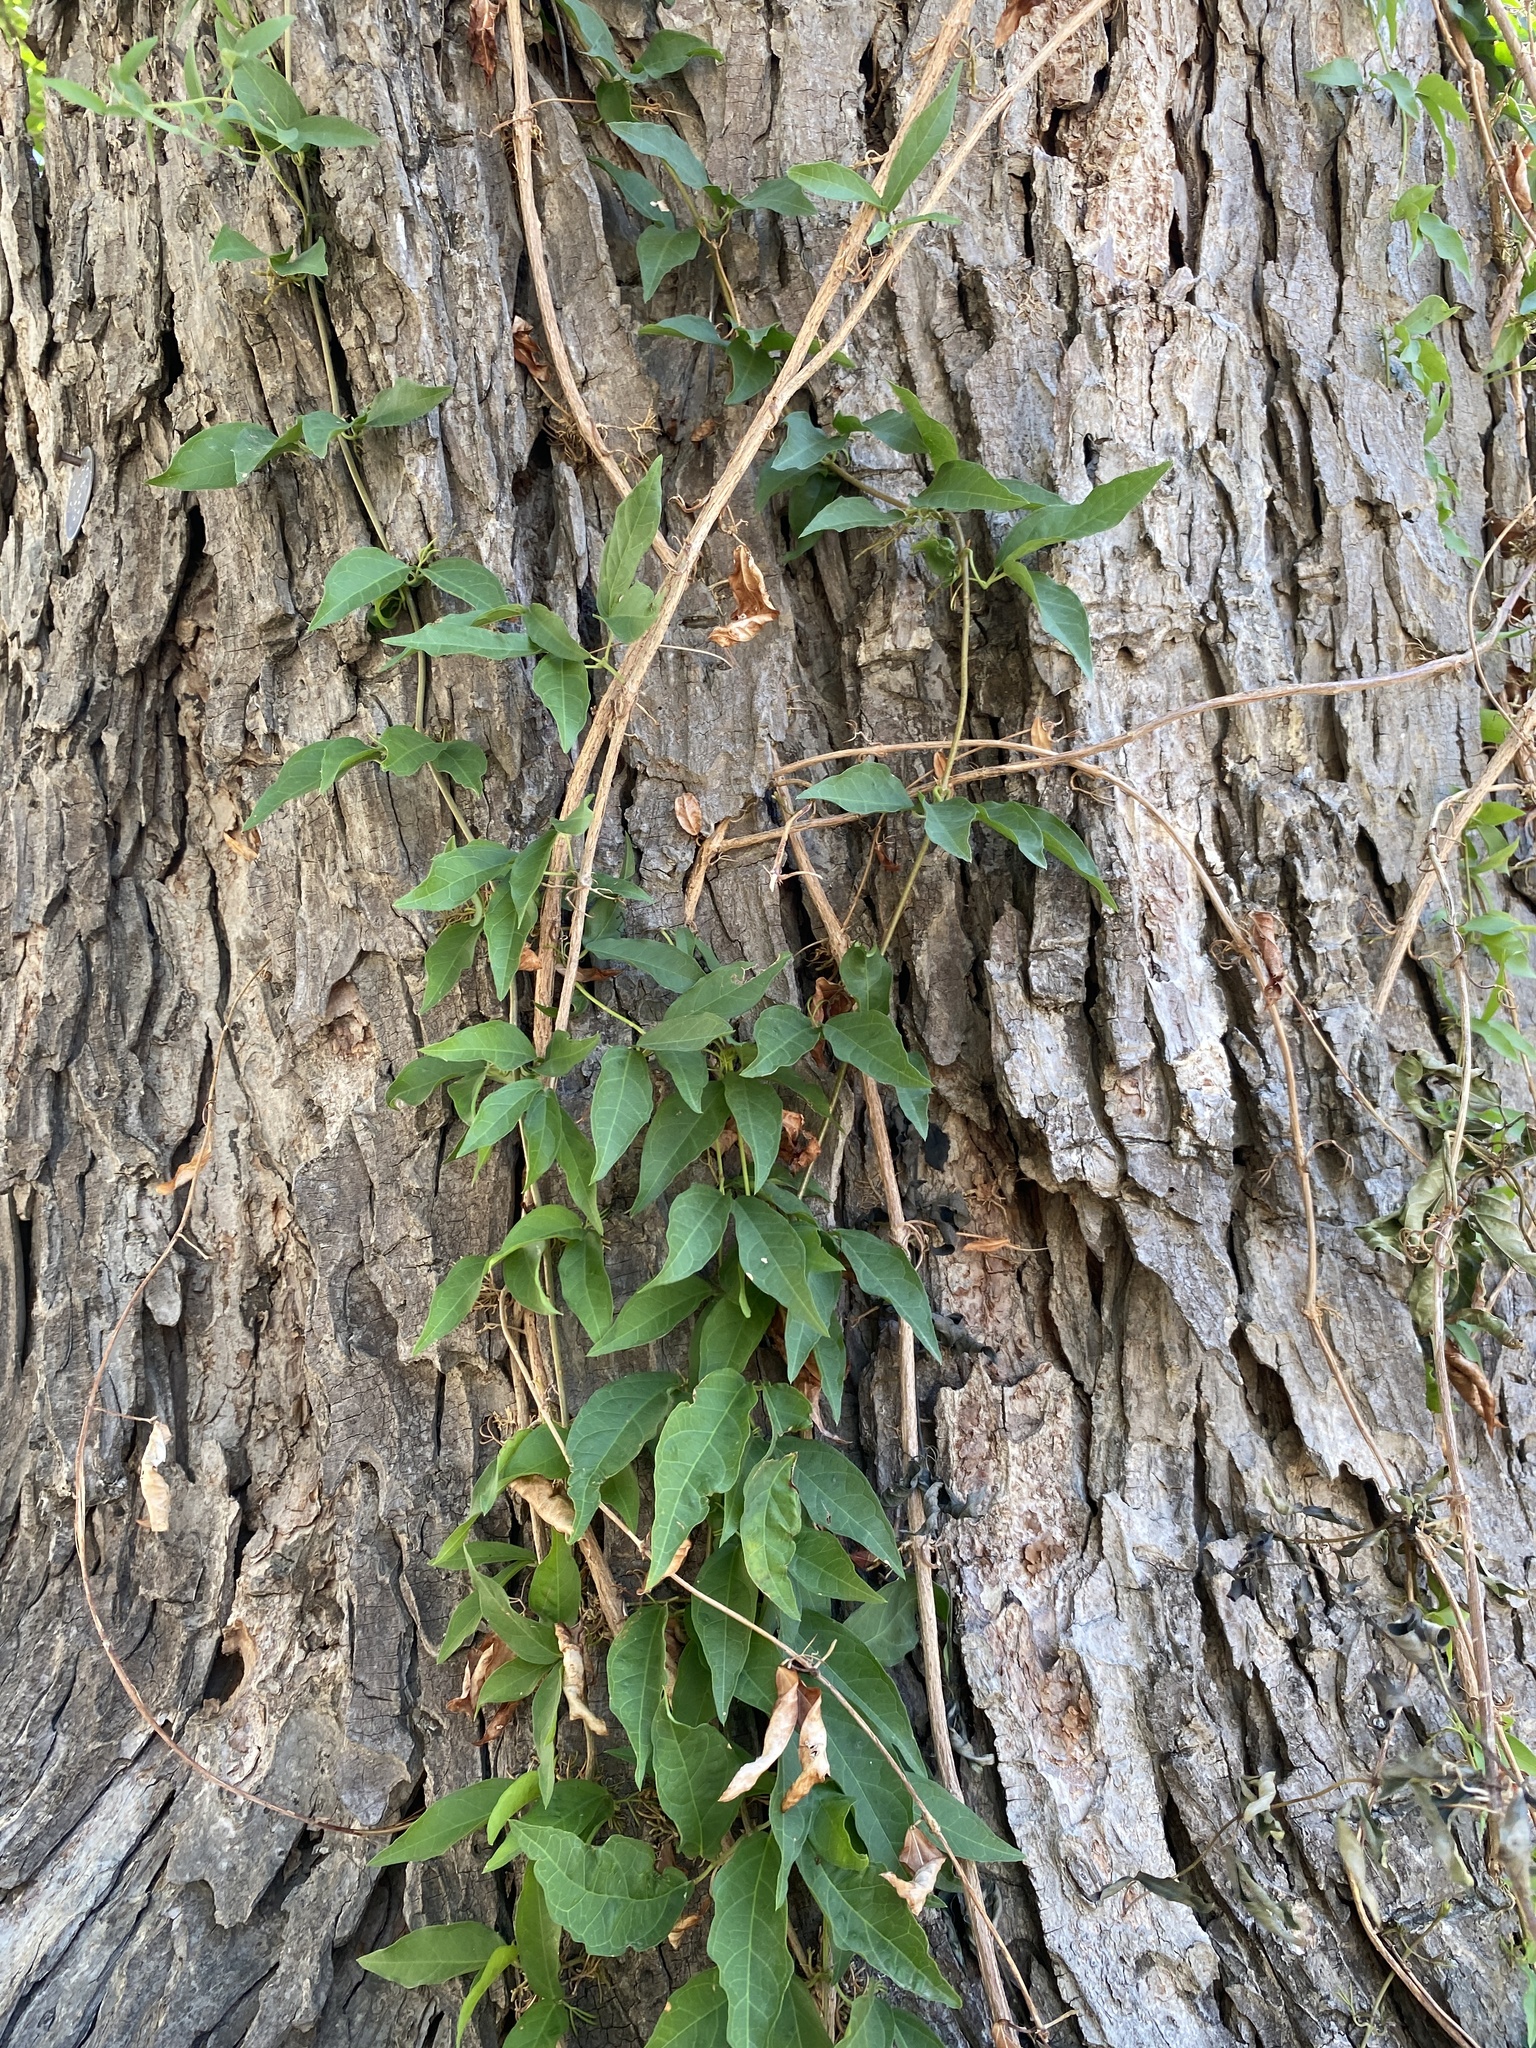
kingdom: Plantae
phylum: Tracheophyta
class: Magnoliopsida
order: Lamiales
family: Bignoniaceae
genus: Dolichandra
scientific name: Dolichandra unguis-cati
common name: Catclaw vine
